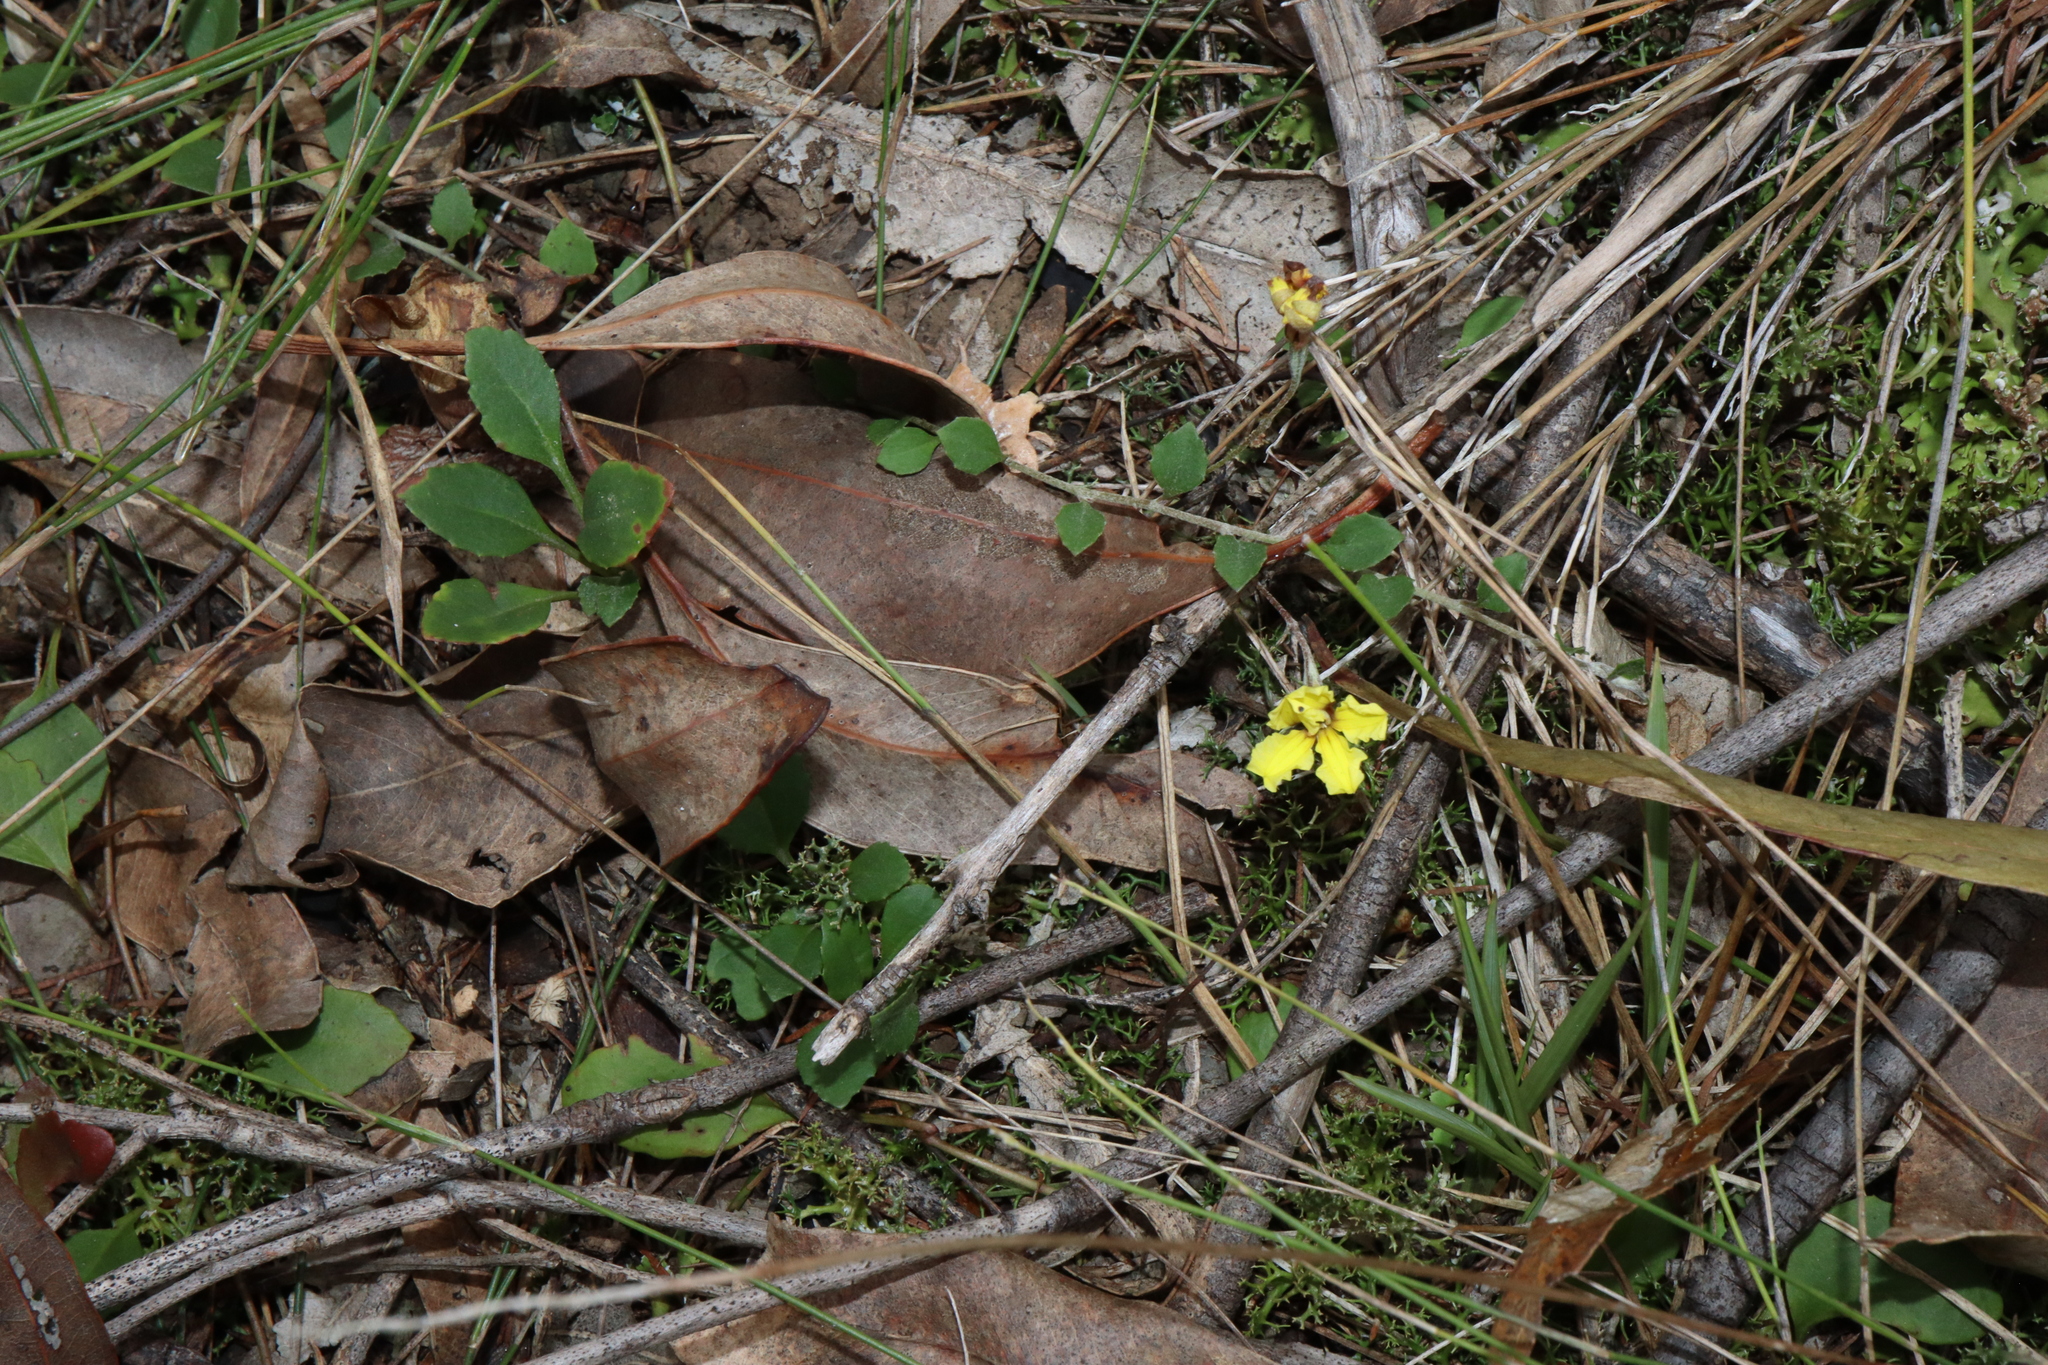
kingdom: Plantae
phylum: Tracheophyta
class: Magnoliopsida
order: Asterales
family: Goodeniaceae
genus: Goodenia
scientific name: Goodenia hederacea
